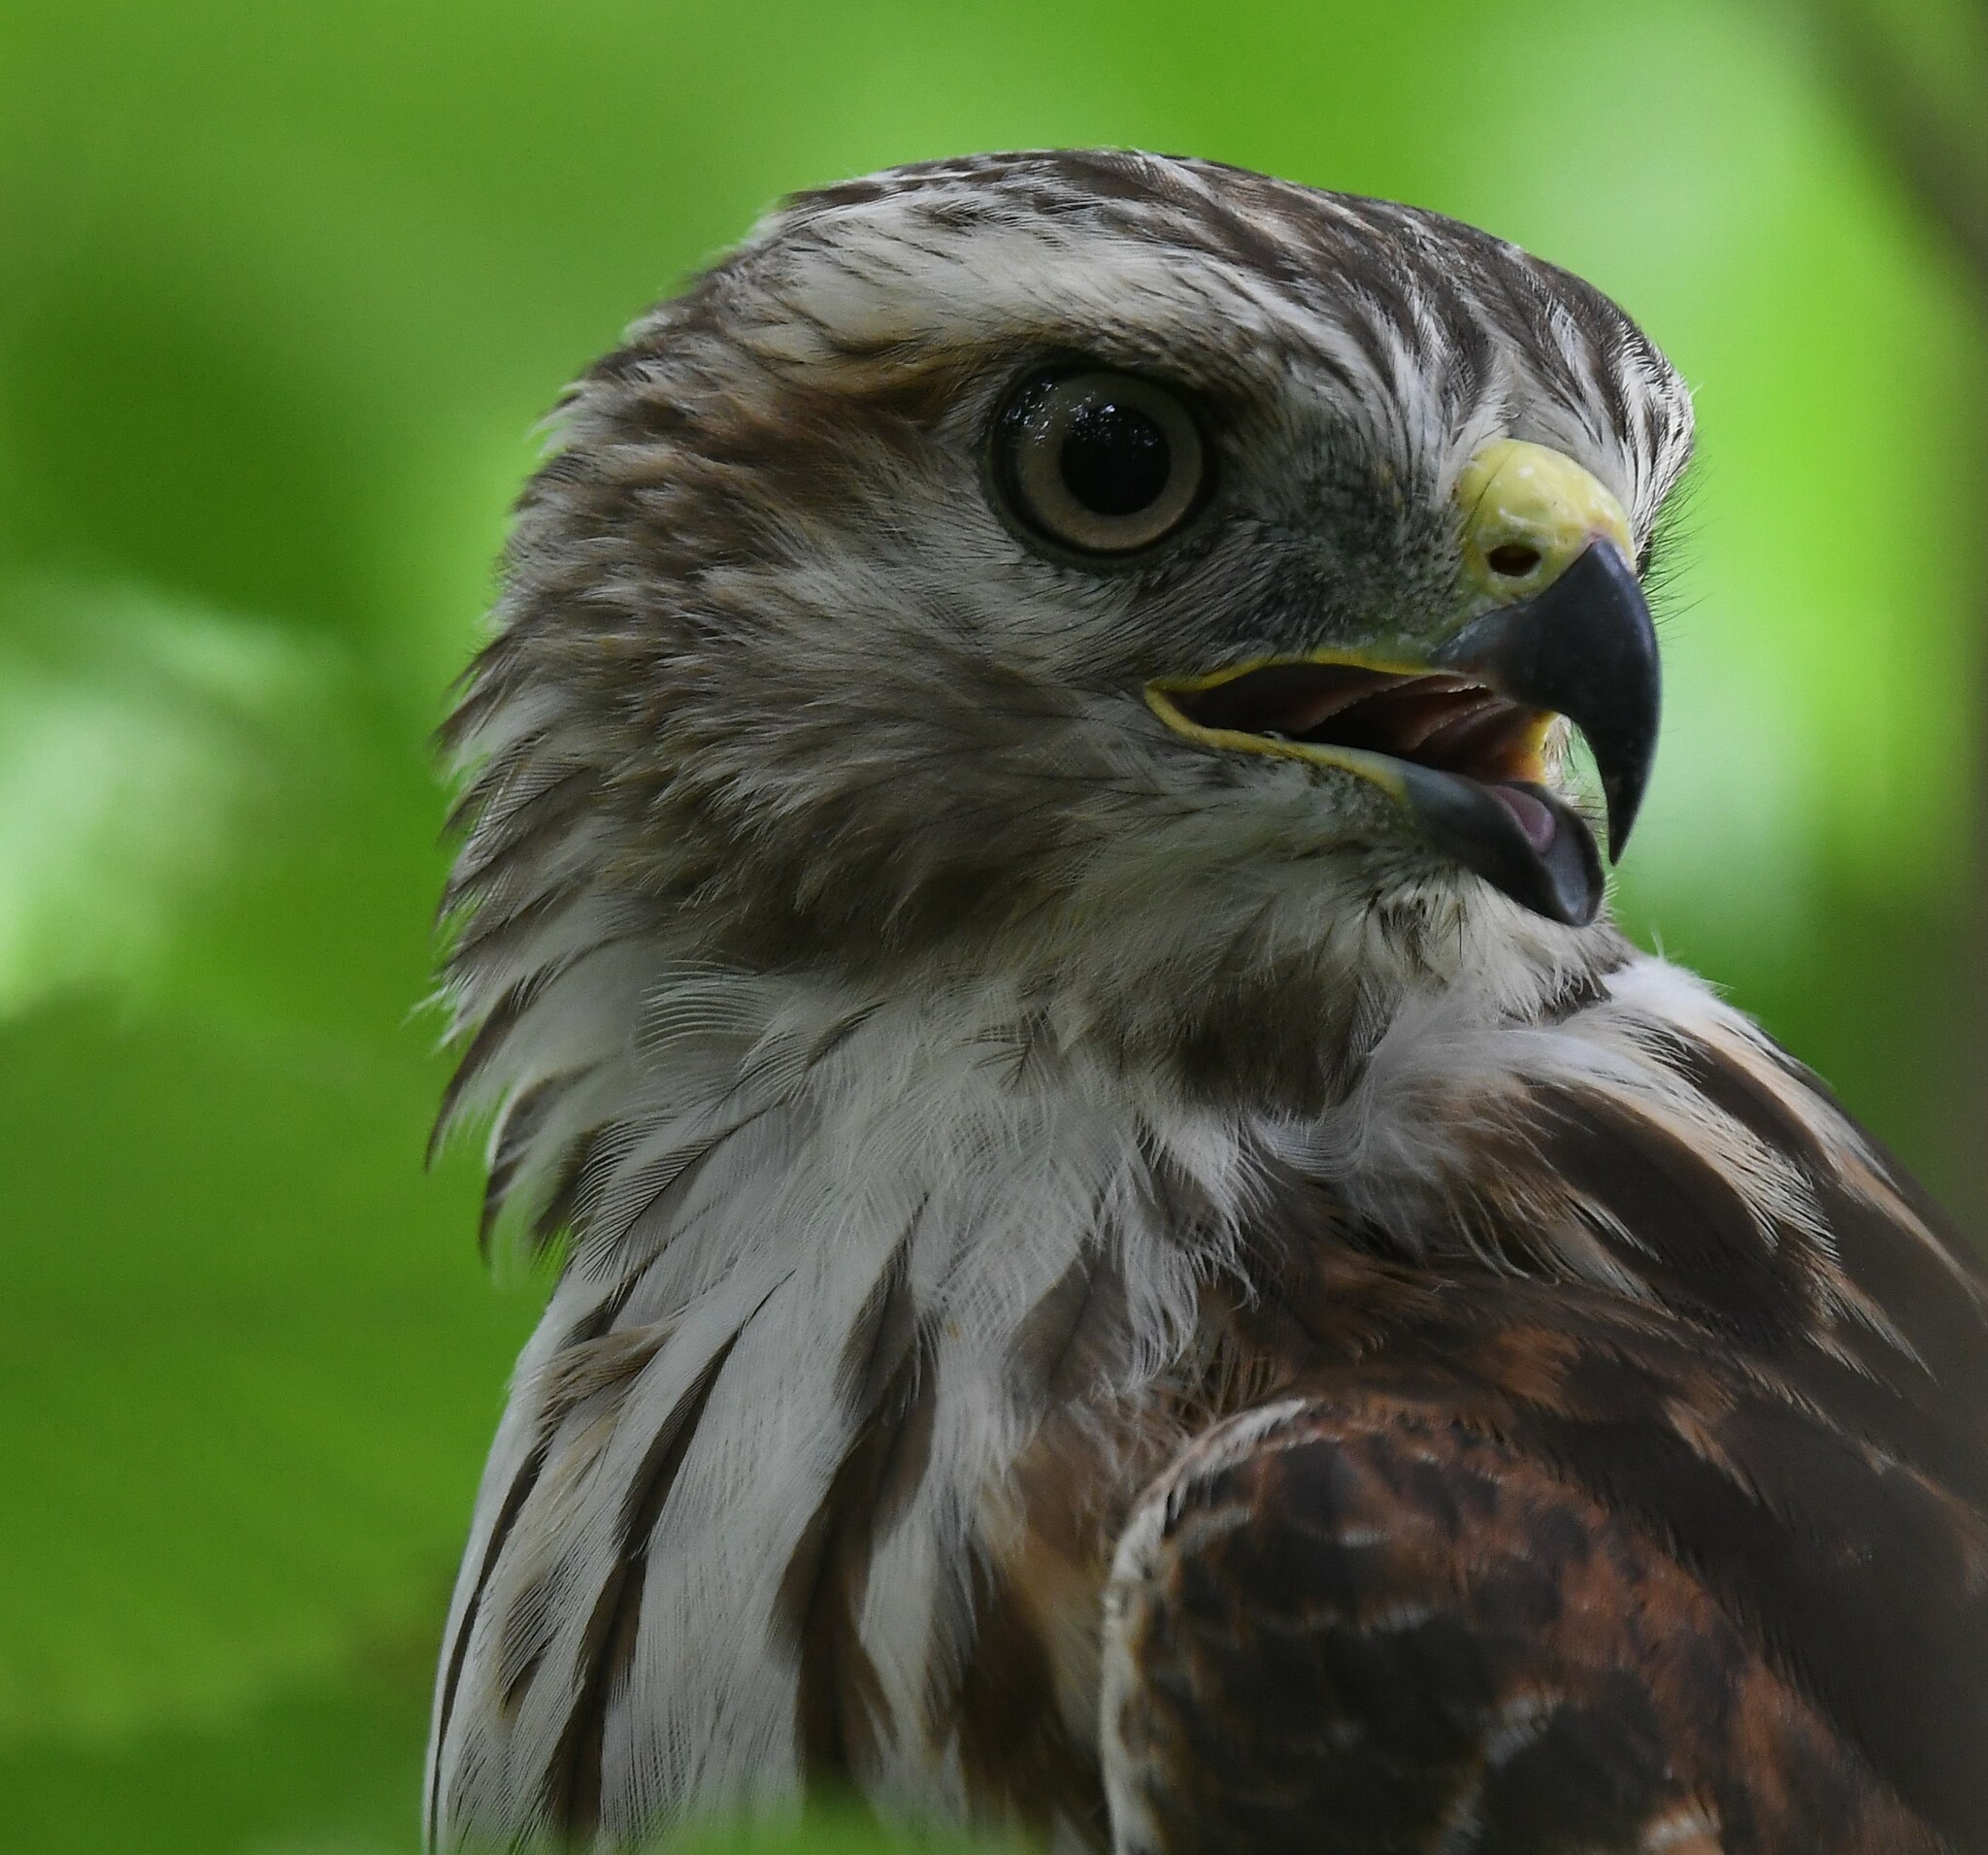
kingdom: Animalia
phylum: Chordata
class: Aves
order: Accipitriformes
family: Accipitridae
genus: Buteo
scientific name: Buteo lineatus
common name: Red-shouldered hawk
